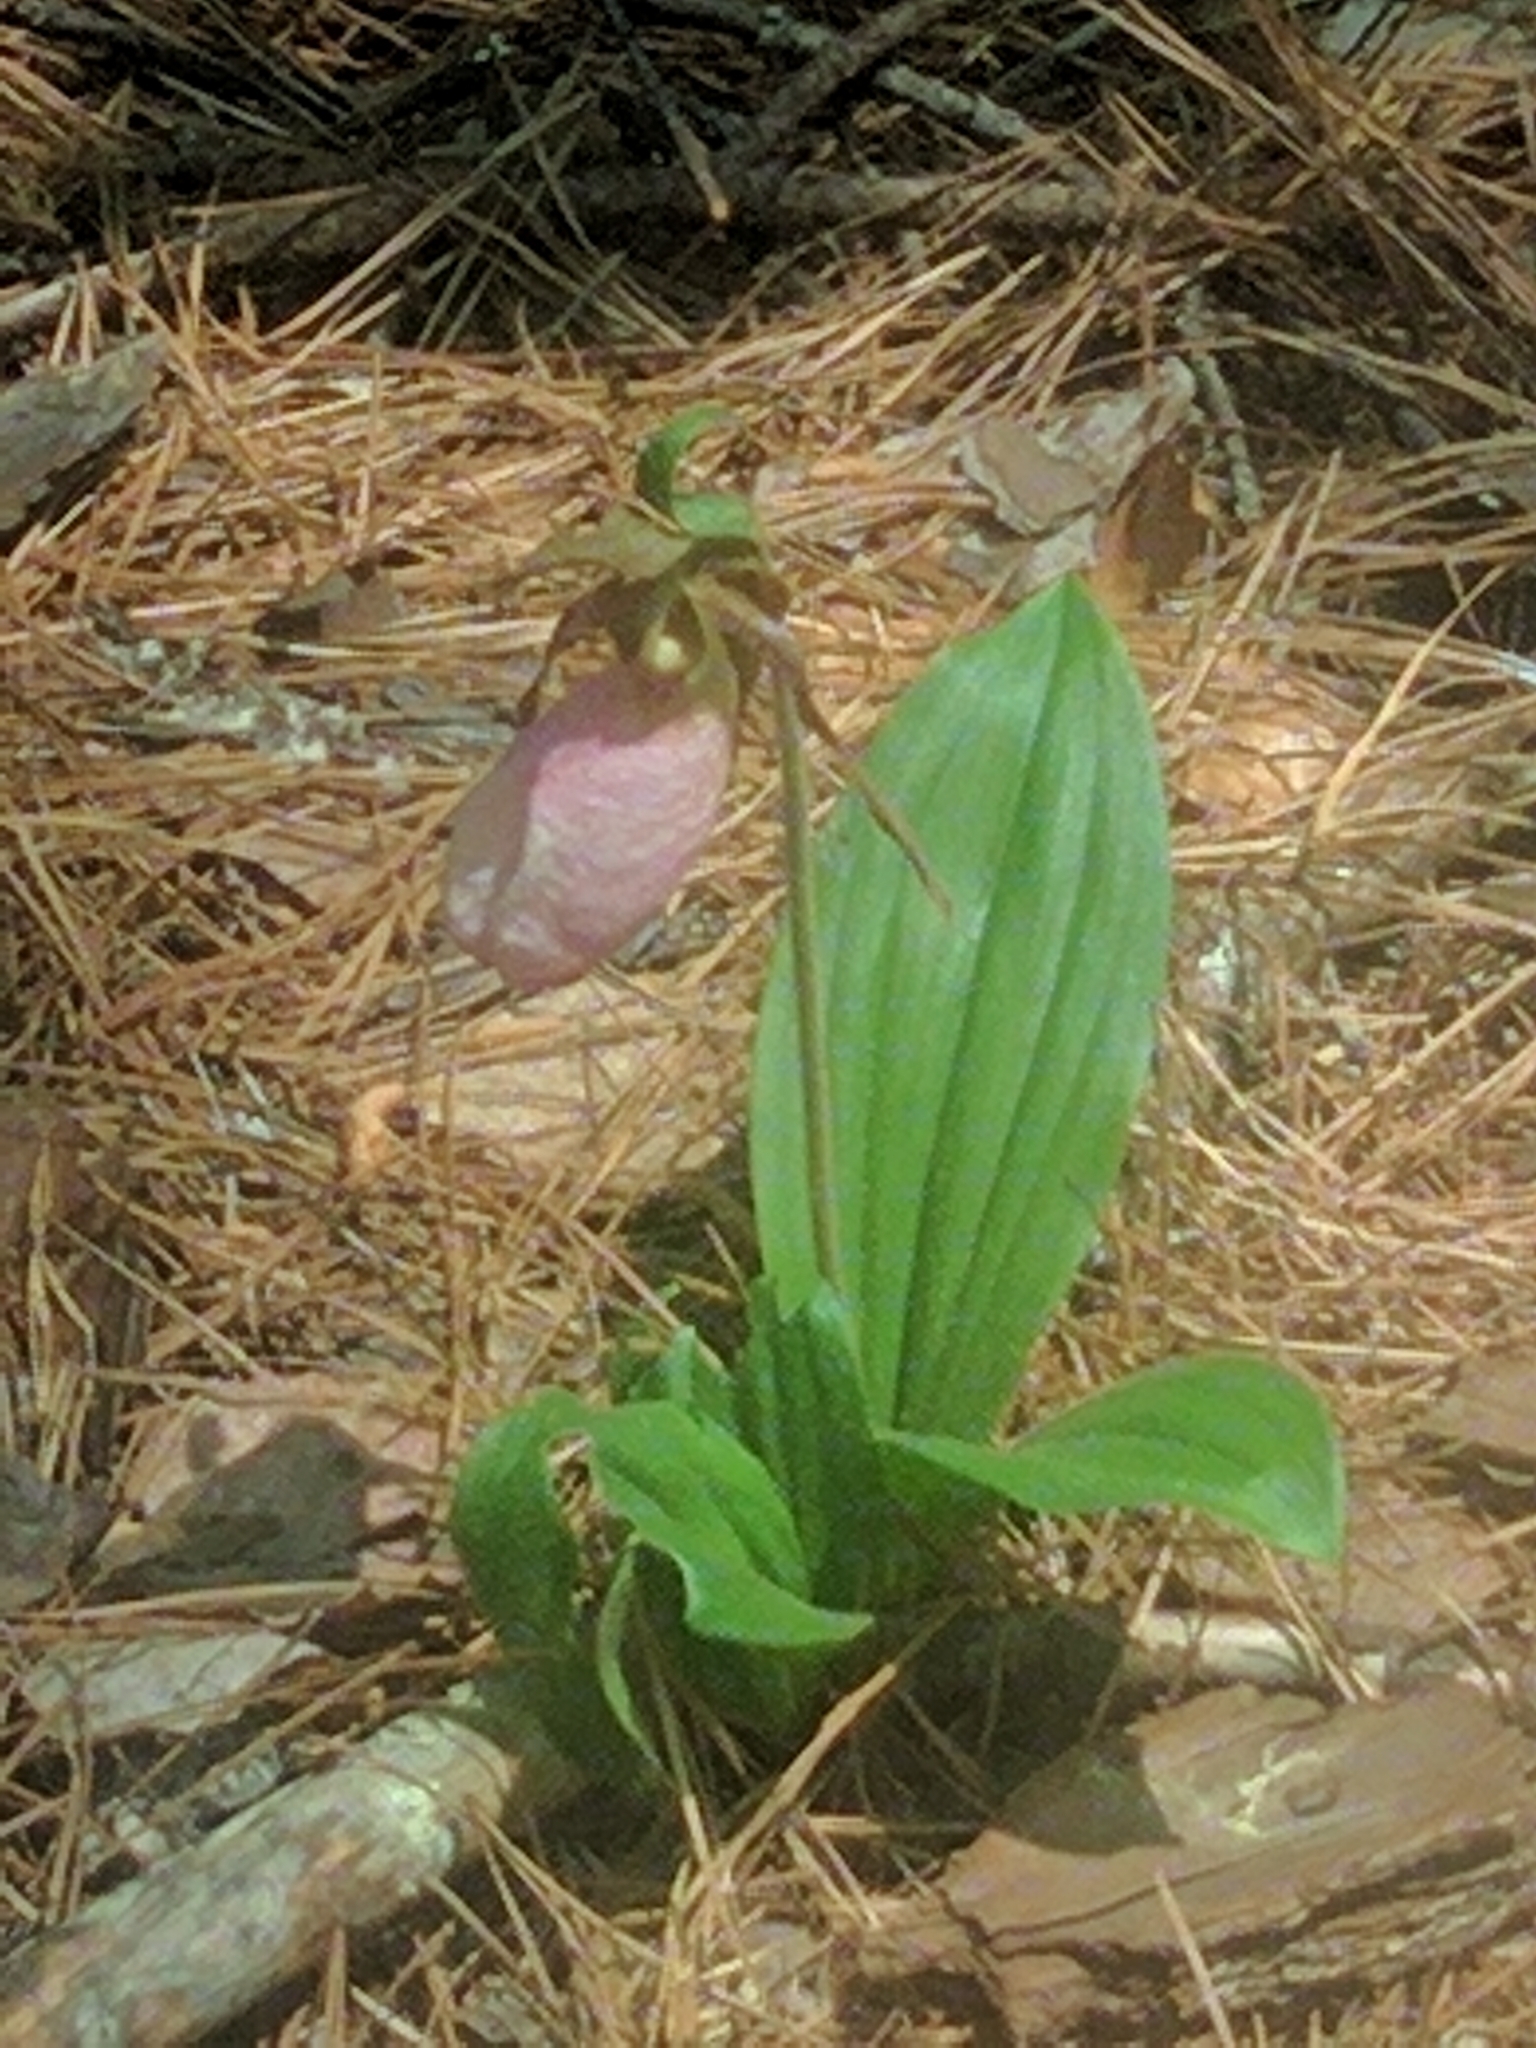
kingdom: Plantae
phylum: Tracheophyta
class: Liliopsida
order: Asparagales
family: Orchidaceae
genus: Cypripedium
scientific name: Cypripedium acaule
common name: Pink lady's-slipper
